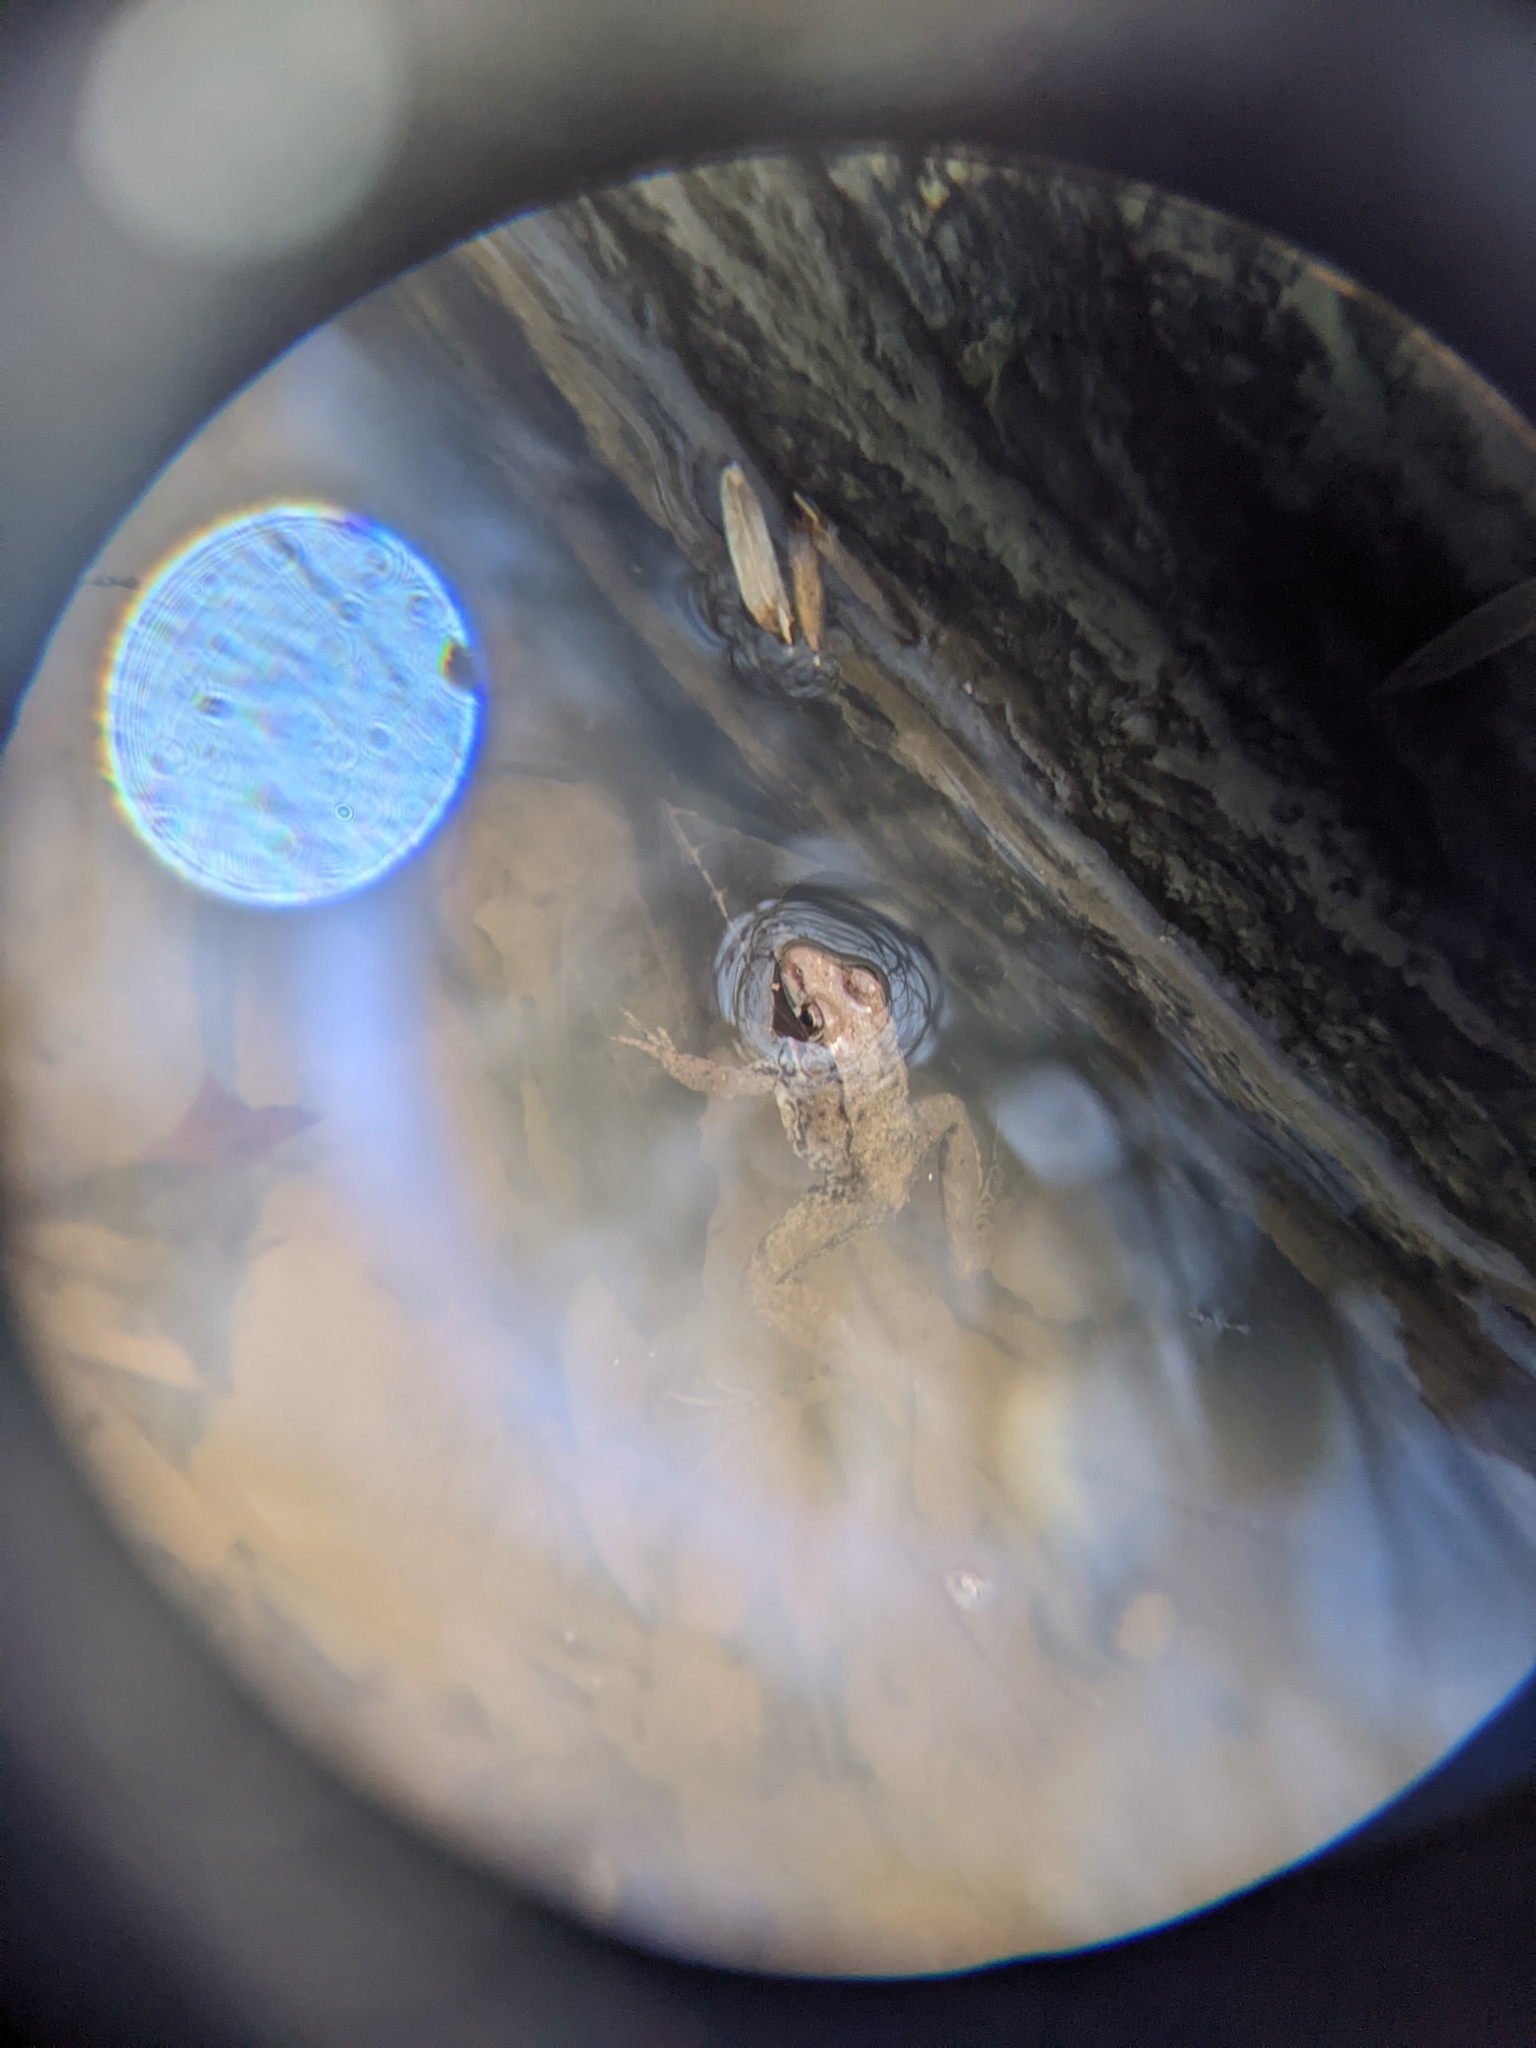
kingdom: Animalia
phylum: Chordata
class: Amphibia
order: Anura
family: Ranidae
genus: Lithobates
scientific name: Lithobates clamitans
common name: Green frog
